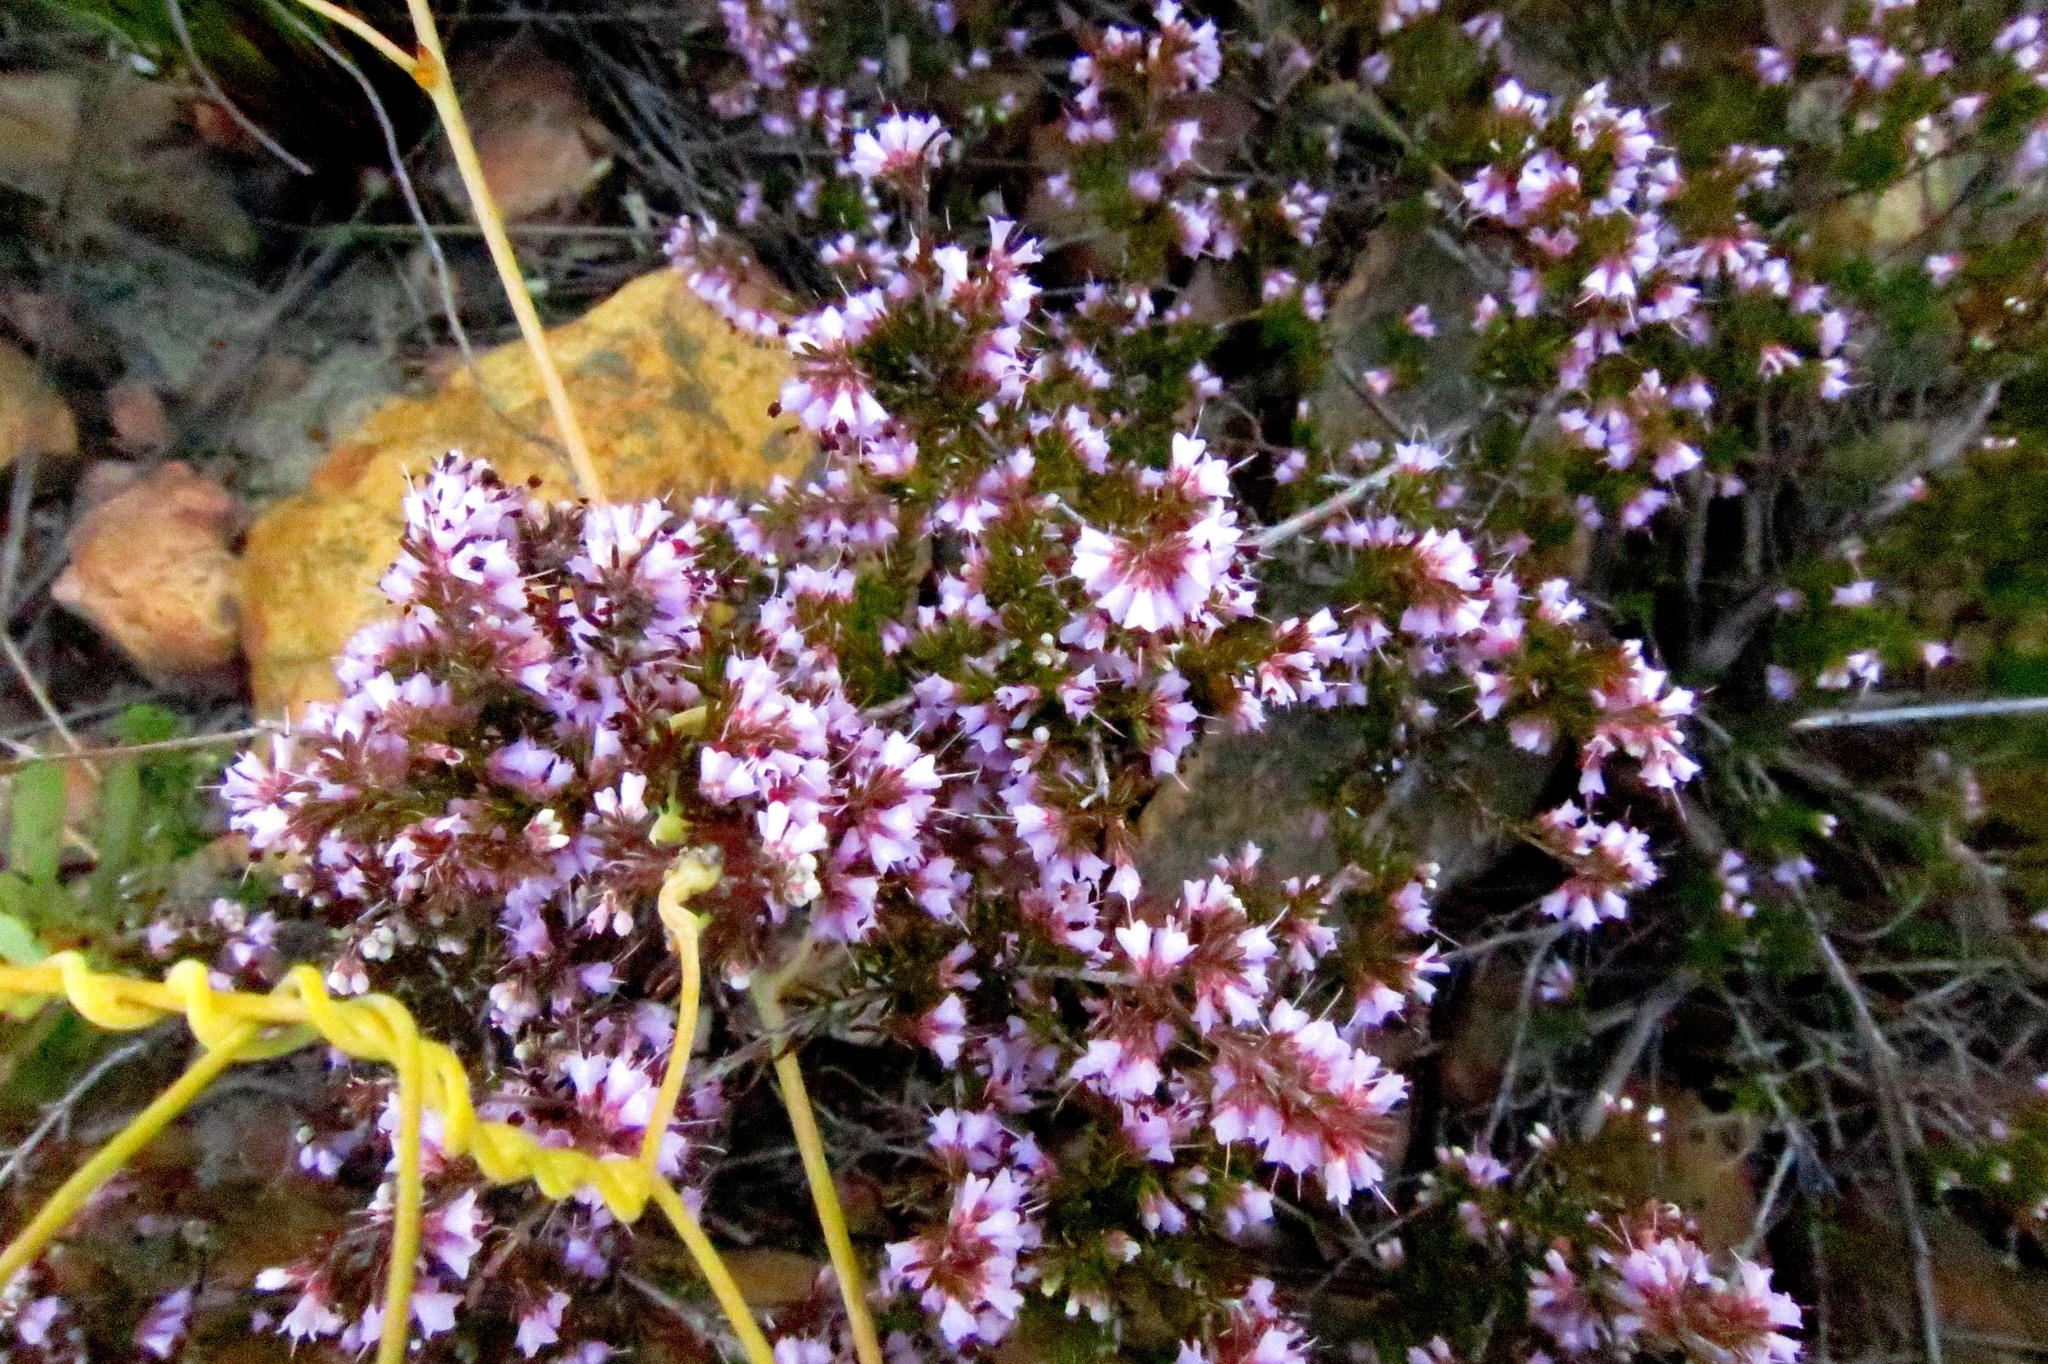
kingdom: Plantae
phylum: Tracheophyta
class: Magnoliopsida
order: Ericales
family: Ericaceae
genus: Erica
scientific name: Erica anguliger
